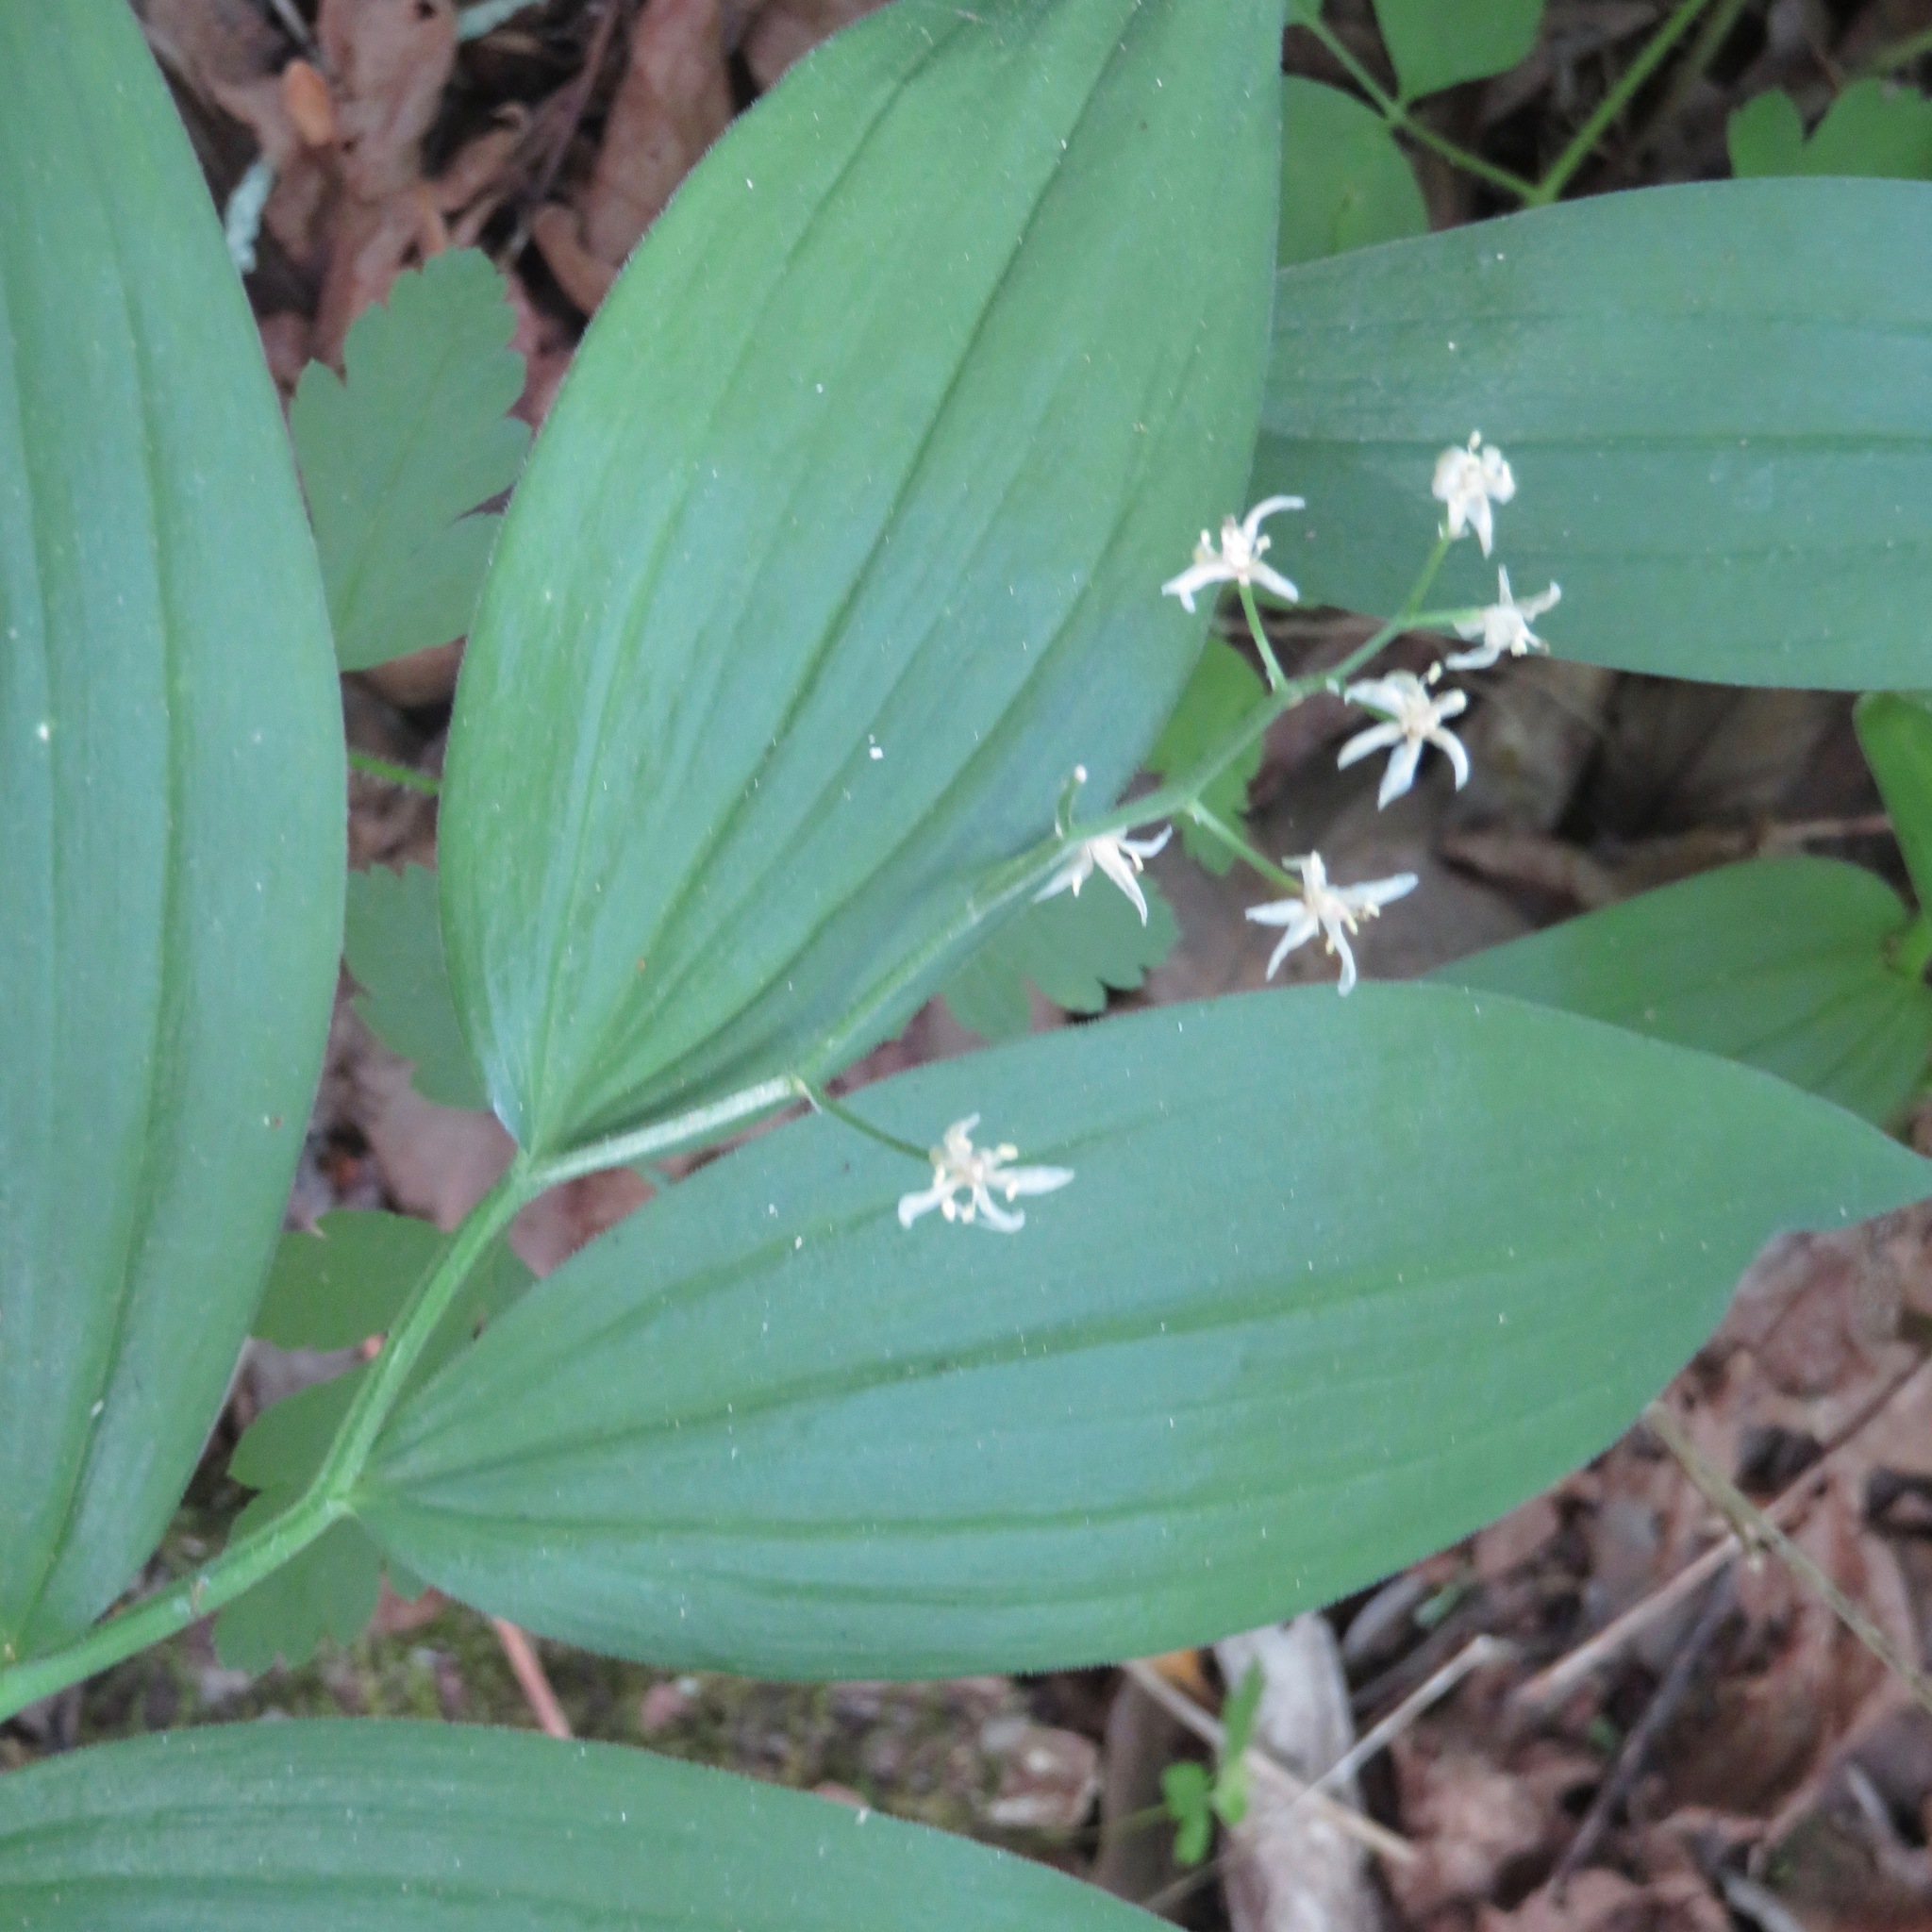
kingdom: Plantae
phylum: Tracheophyta
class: Liliopsida
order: Asparagales
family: Asparagaceae
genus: Maianthemum
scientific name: Maianthemum stellatum
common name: Little false solomon's seal
